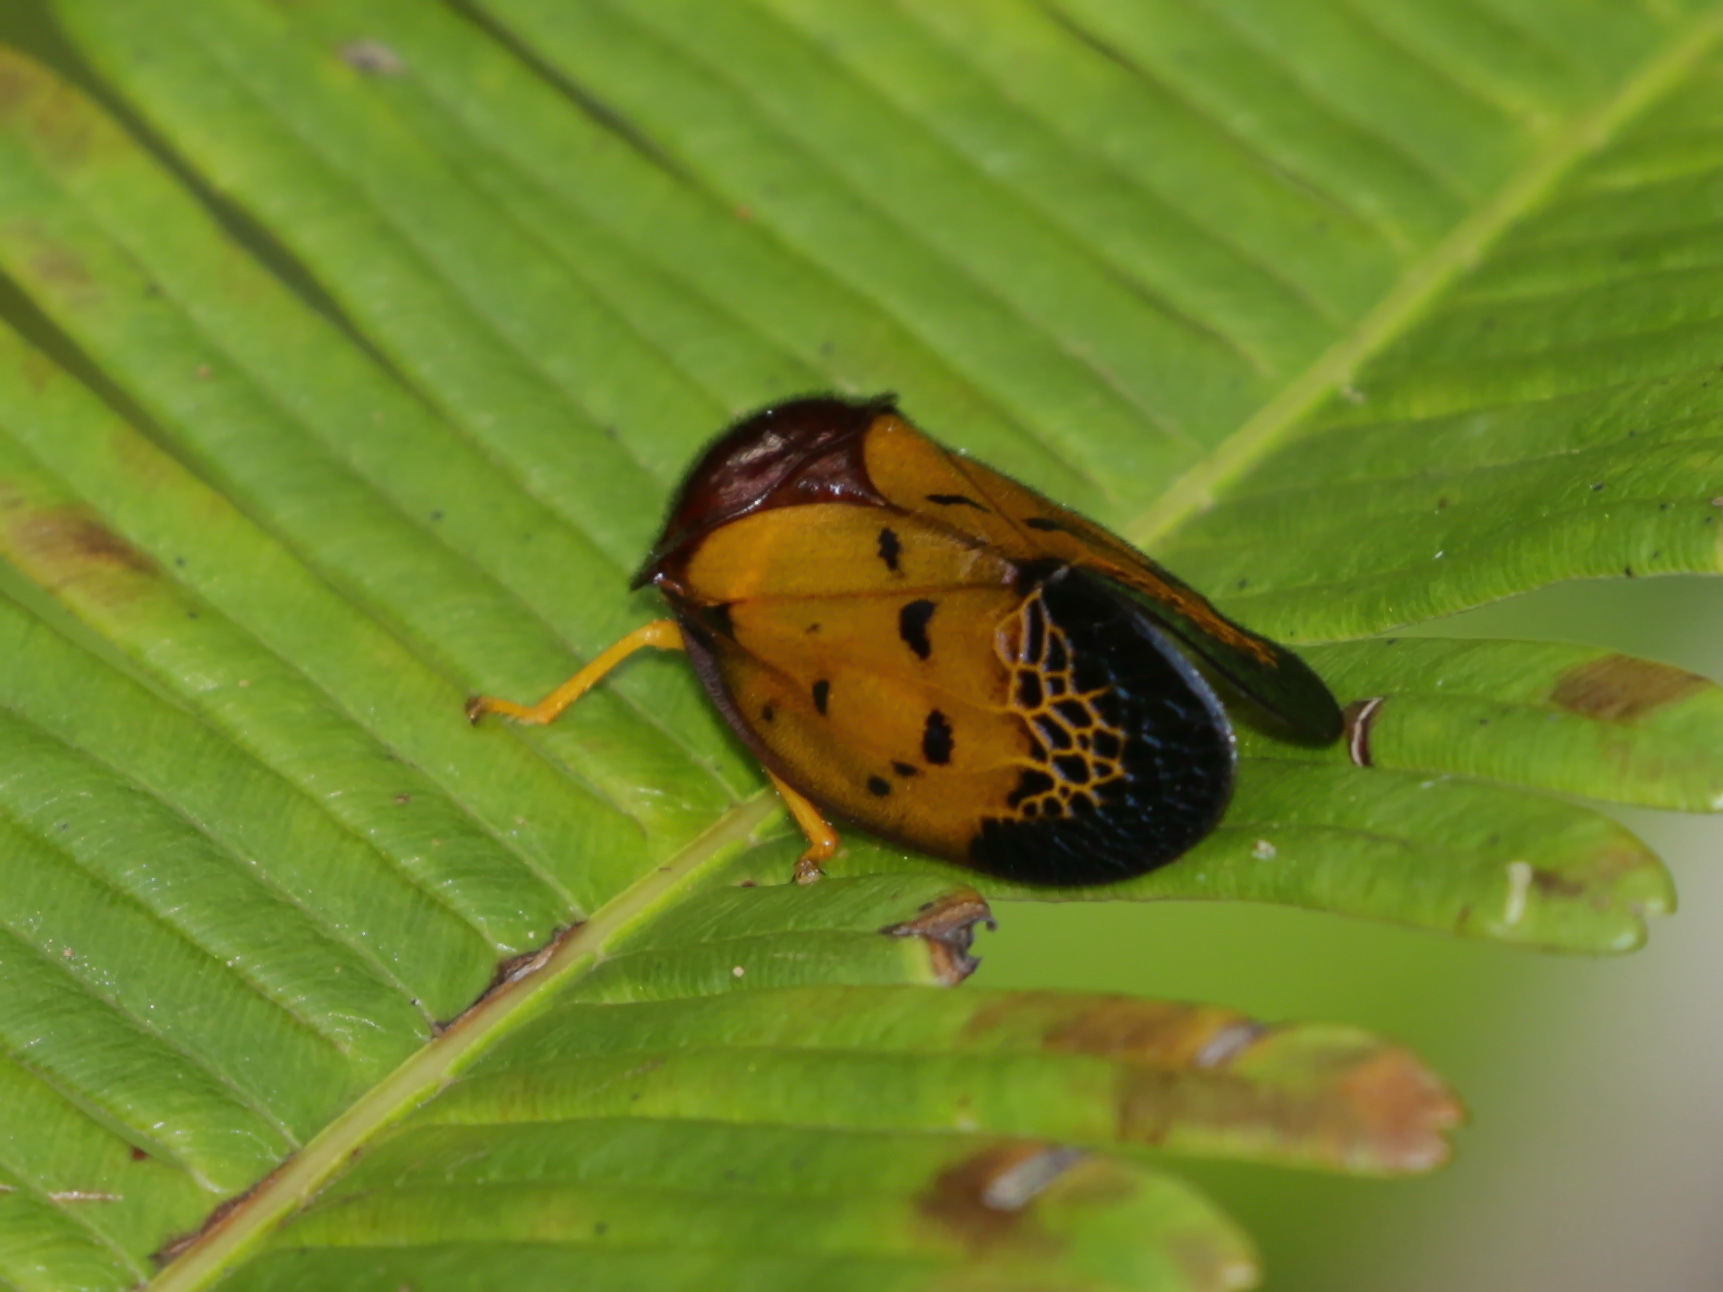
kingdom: Animalia
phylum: Arthropoda
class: Insecta
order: Hemiptera
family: Cercopidae
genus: Leptataspis
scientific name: Leptataspis scabra
